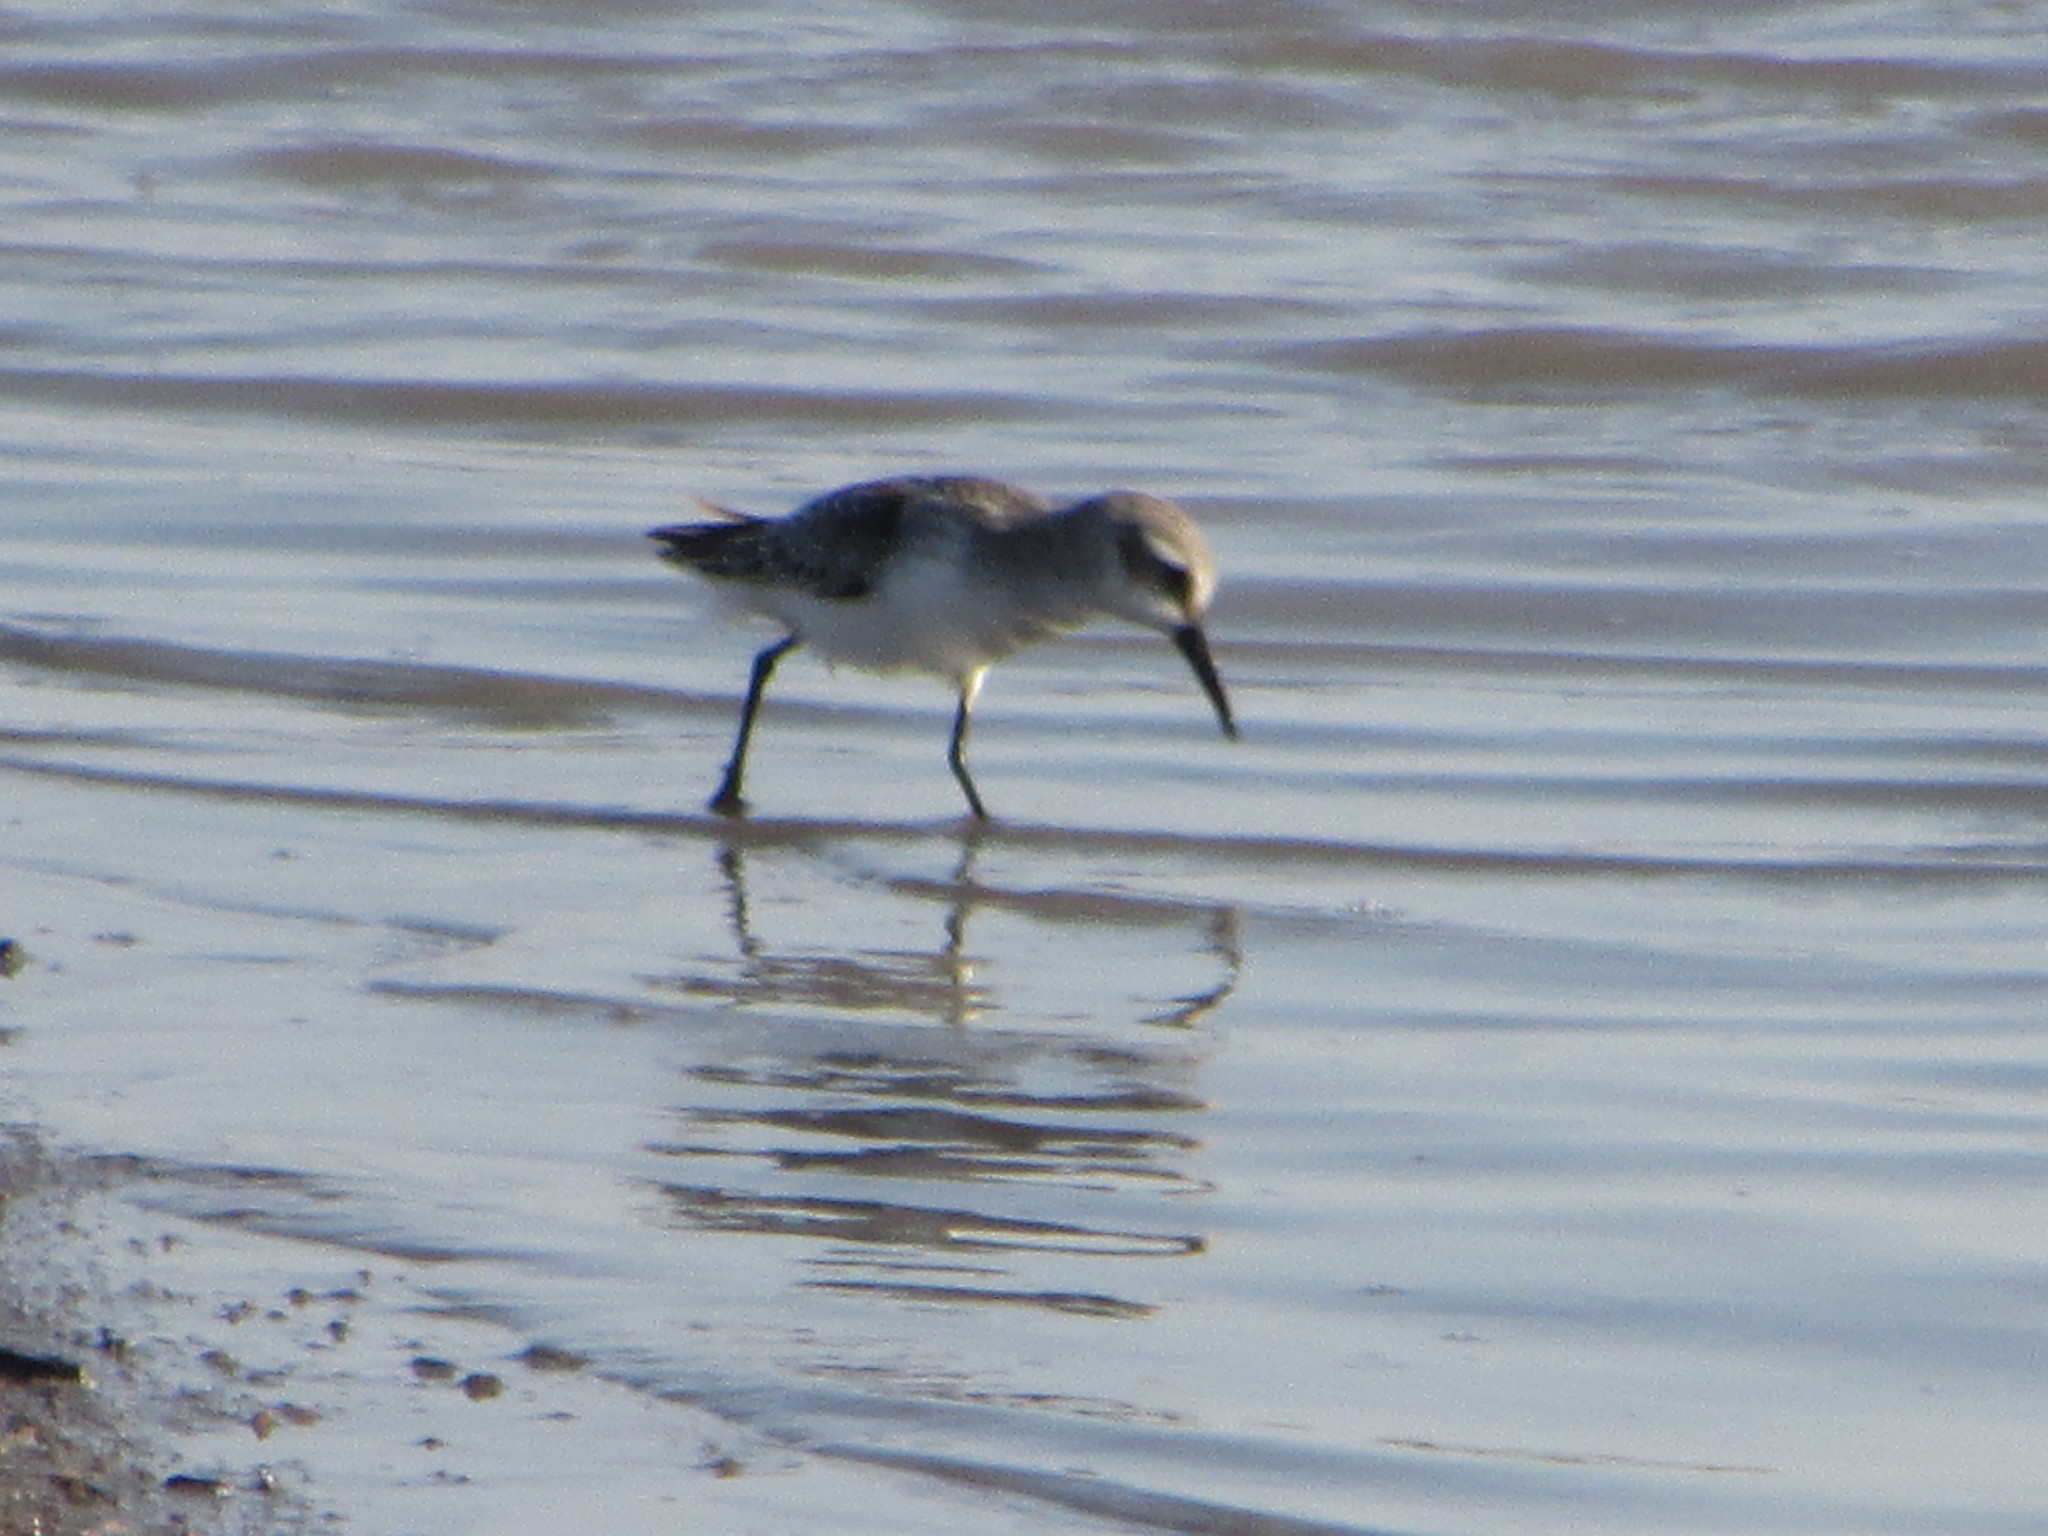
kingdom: Animalia
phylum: Chordata
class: Aves
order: Charadriiformes
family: Scolopacidae
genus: Calidris
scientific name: Calidris mauri
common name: Western sandpiper
